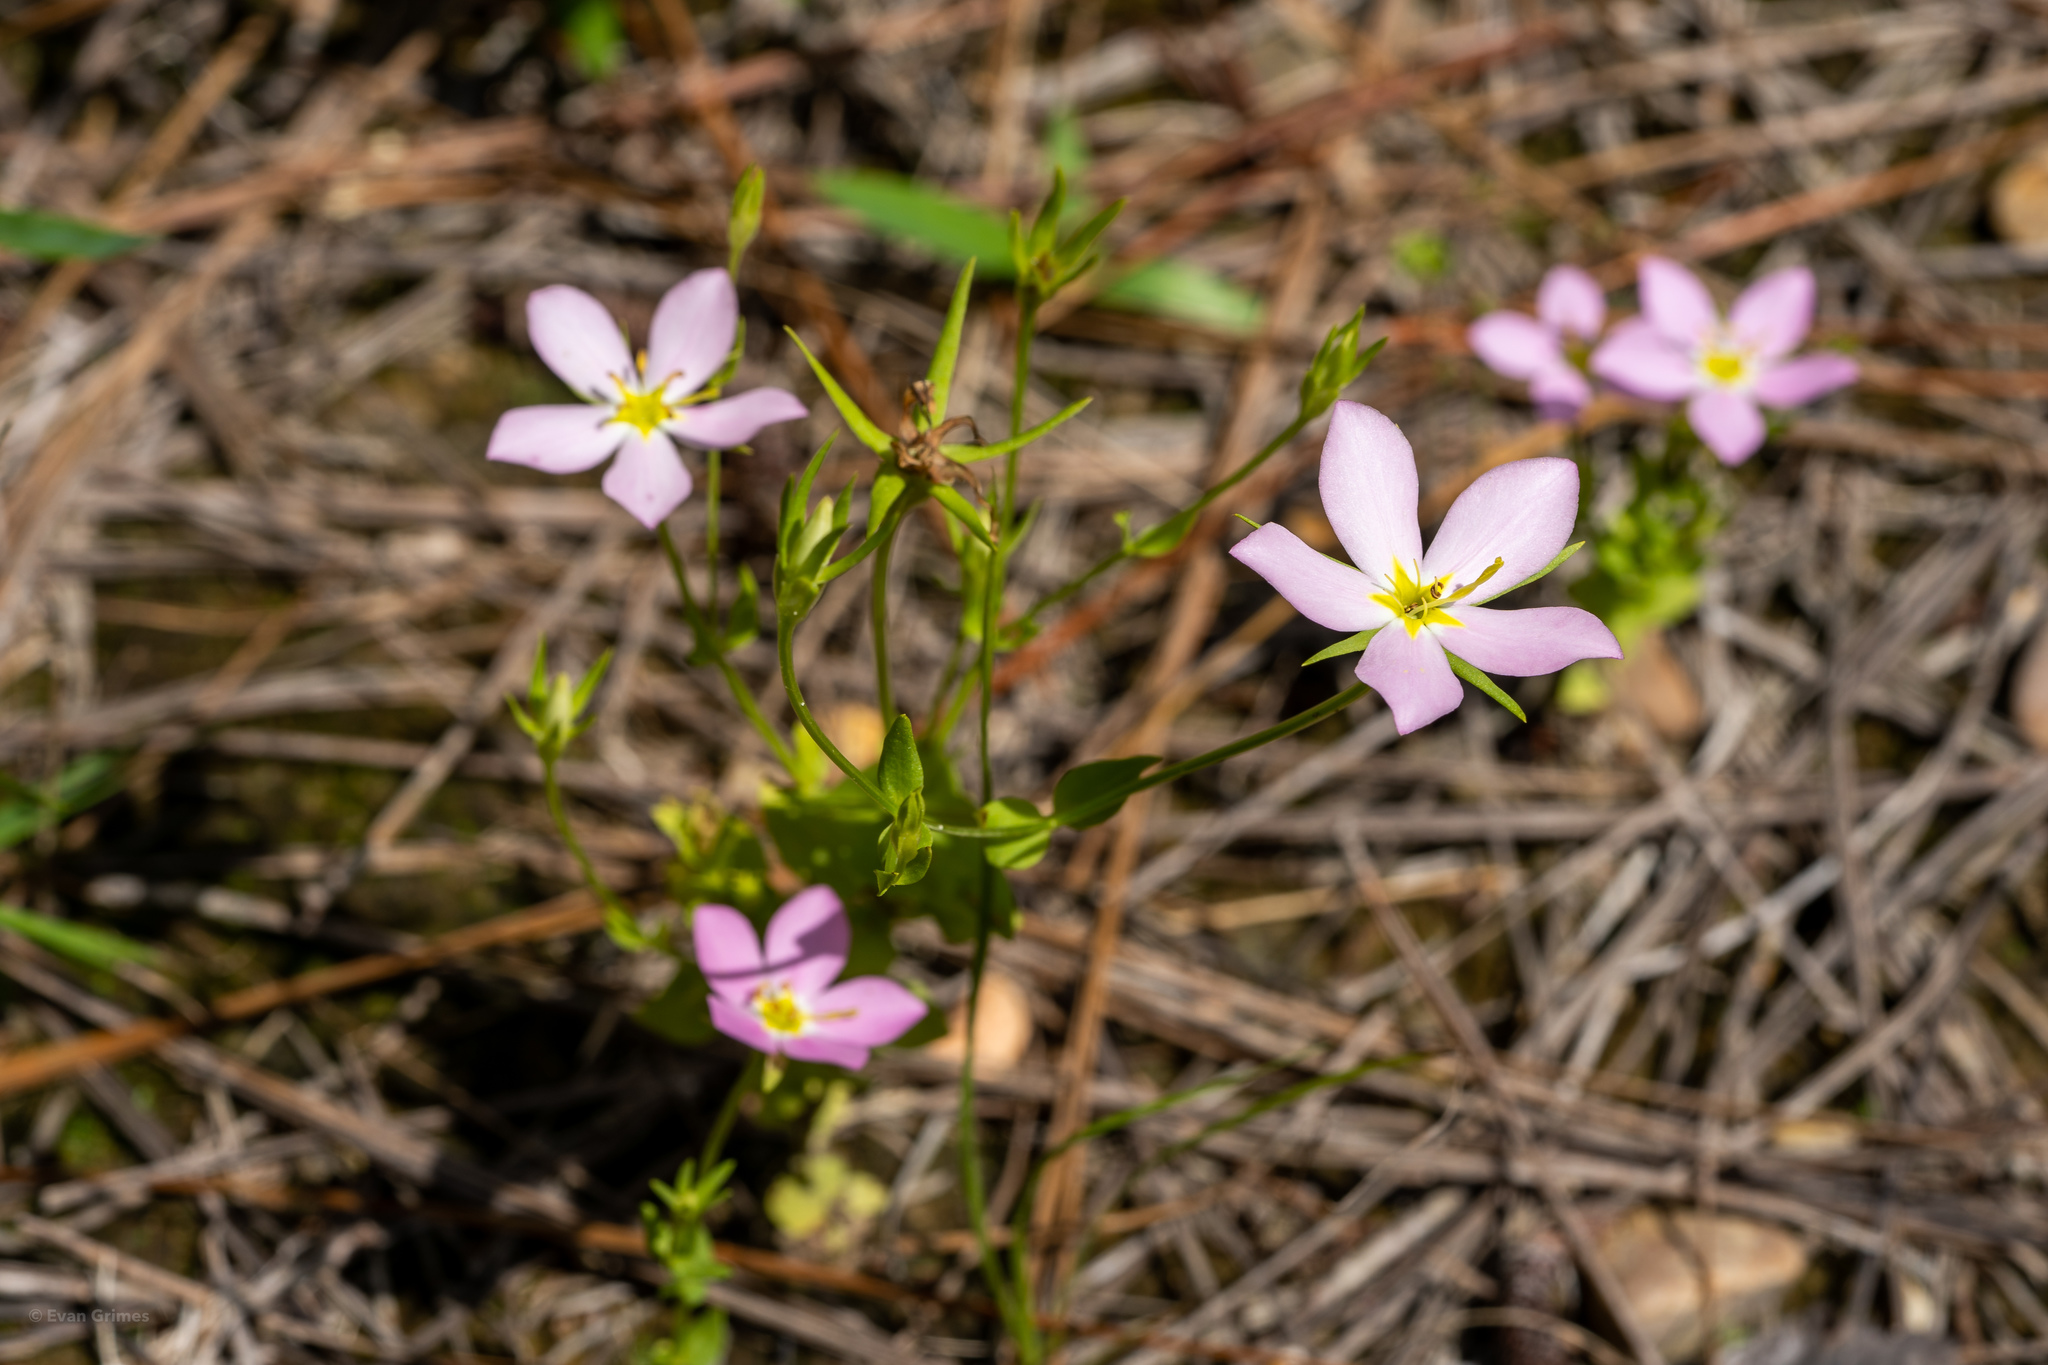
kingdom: Plantae
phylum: Tracheophyta
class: Magnoliopsida
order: Gentianales
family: Gentianaceae
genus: Sabatia
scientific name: Sabatia campestris
